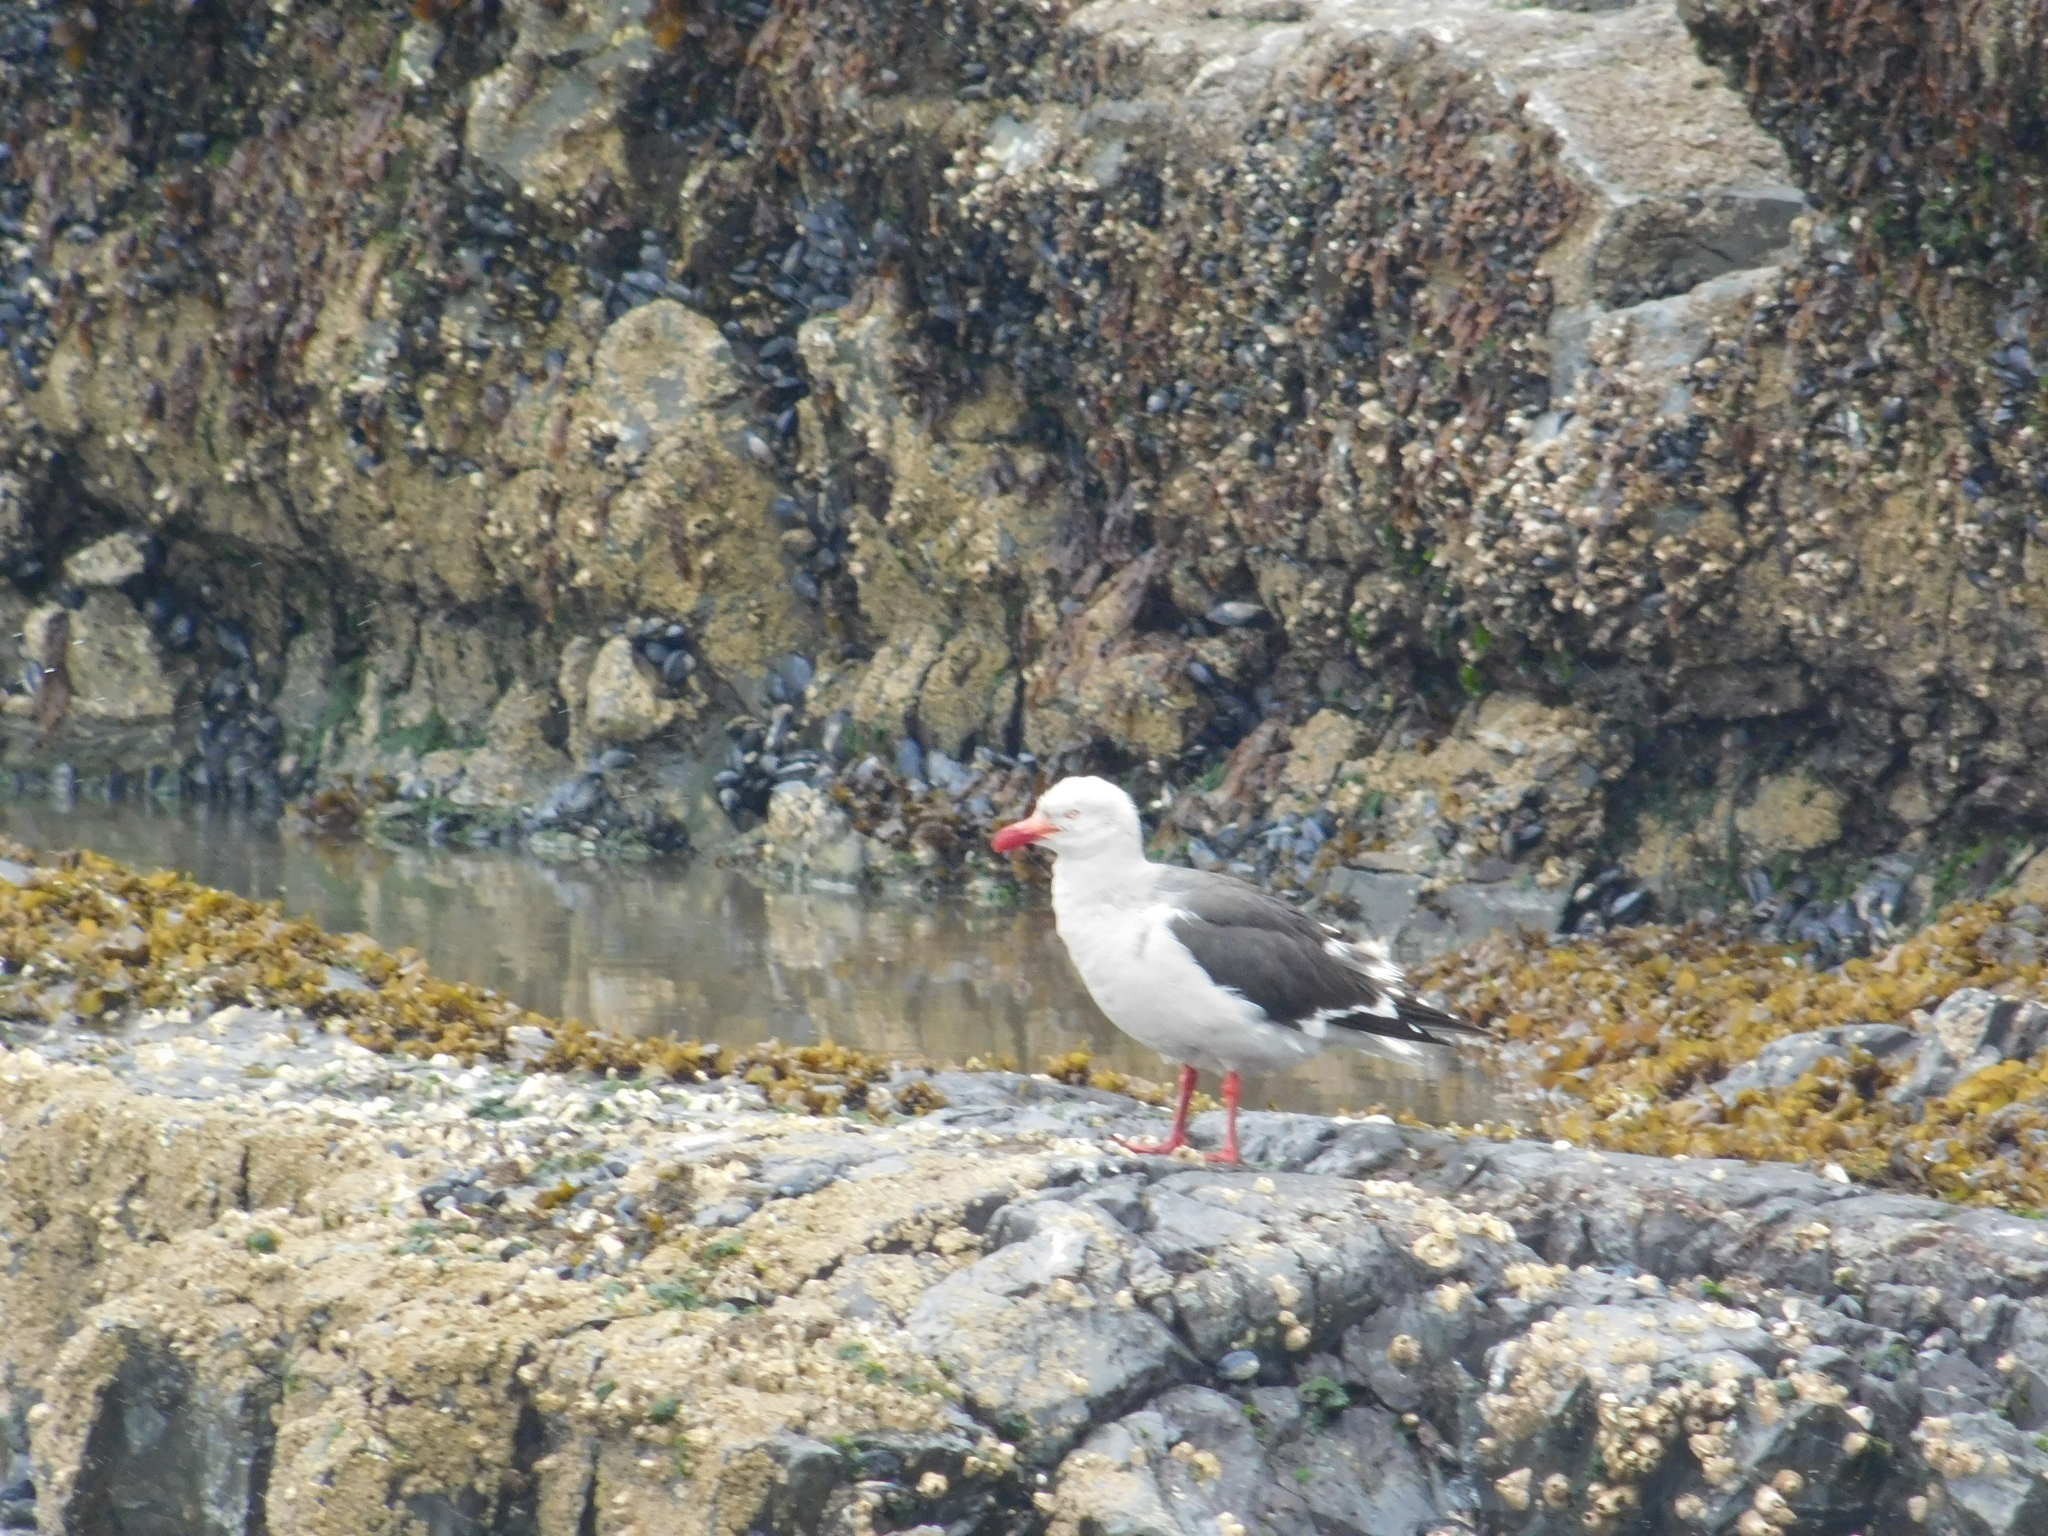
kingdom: Animalia
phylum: Chordata
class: Aves
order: Charadriiformes
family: Laridae
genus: Leucophaeus
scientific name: Leucophaeus scoresbii
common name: Dolphin gull
